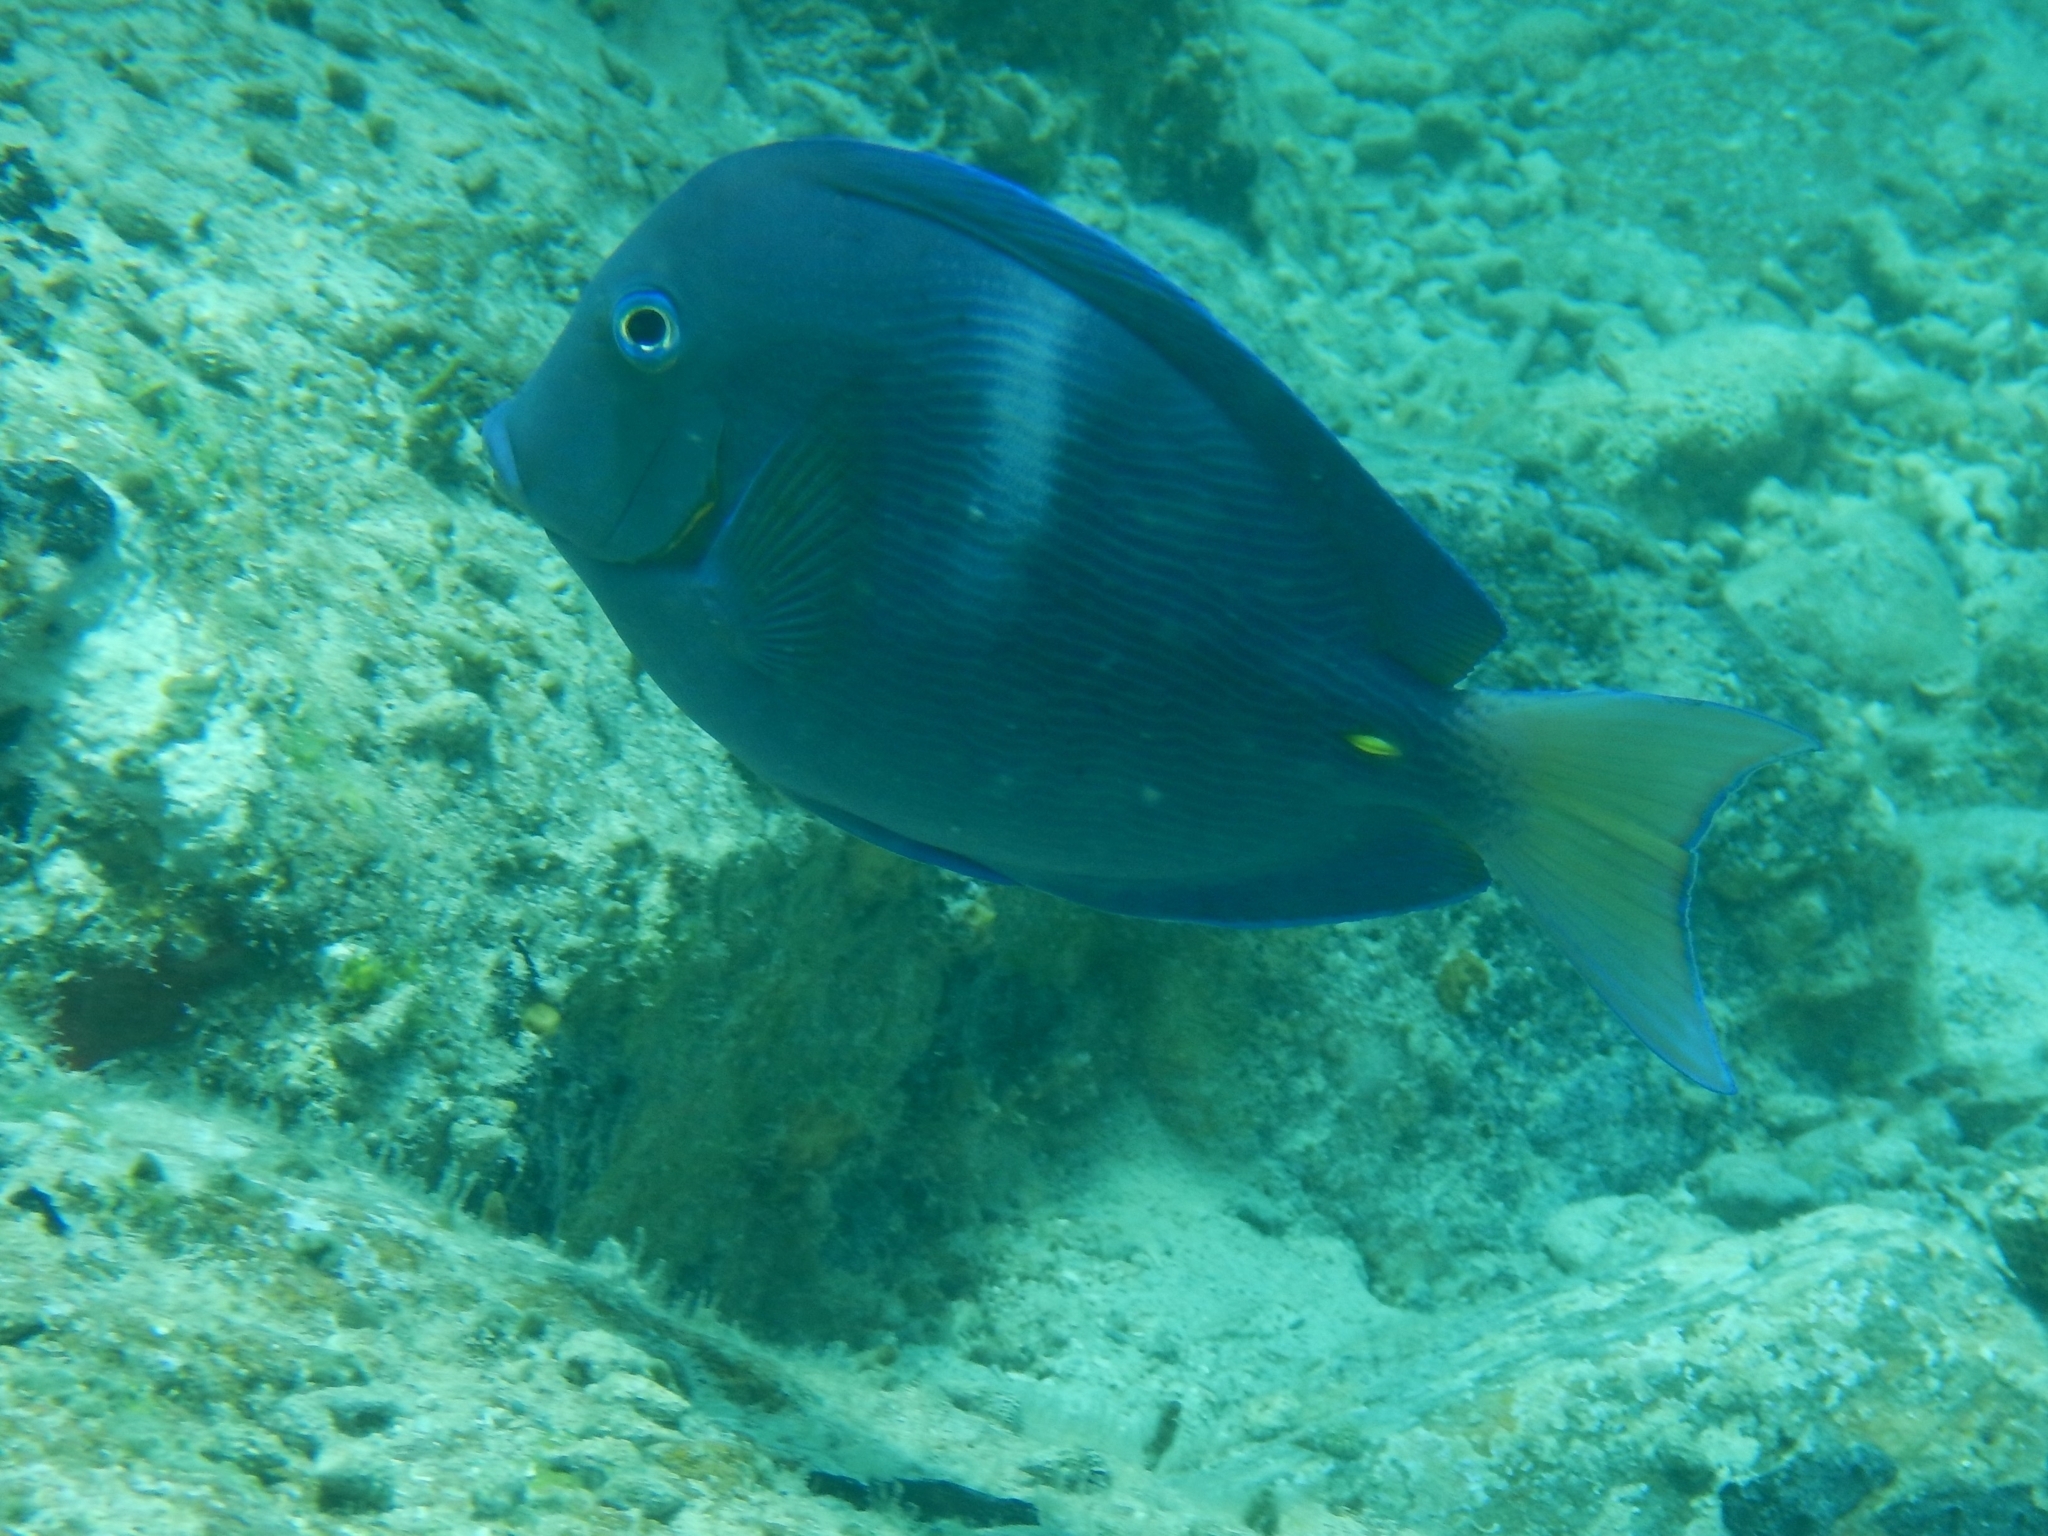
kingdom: Animalia
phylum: Chordata
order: Perciformes
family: Acanthuridae
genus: Acanthurus
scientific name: Acanthurus coeruleus
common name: Blue tang
